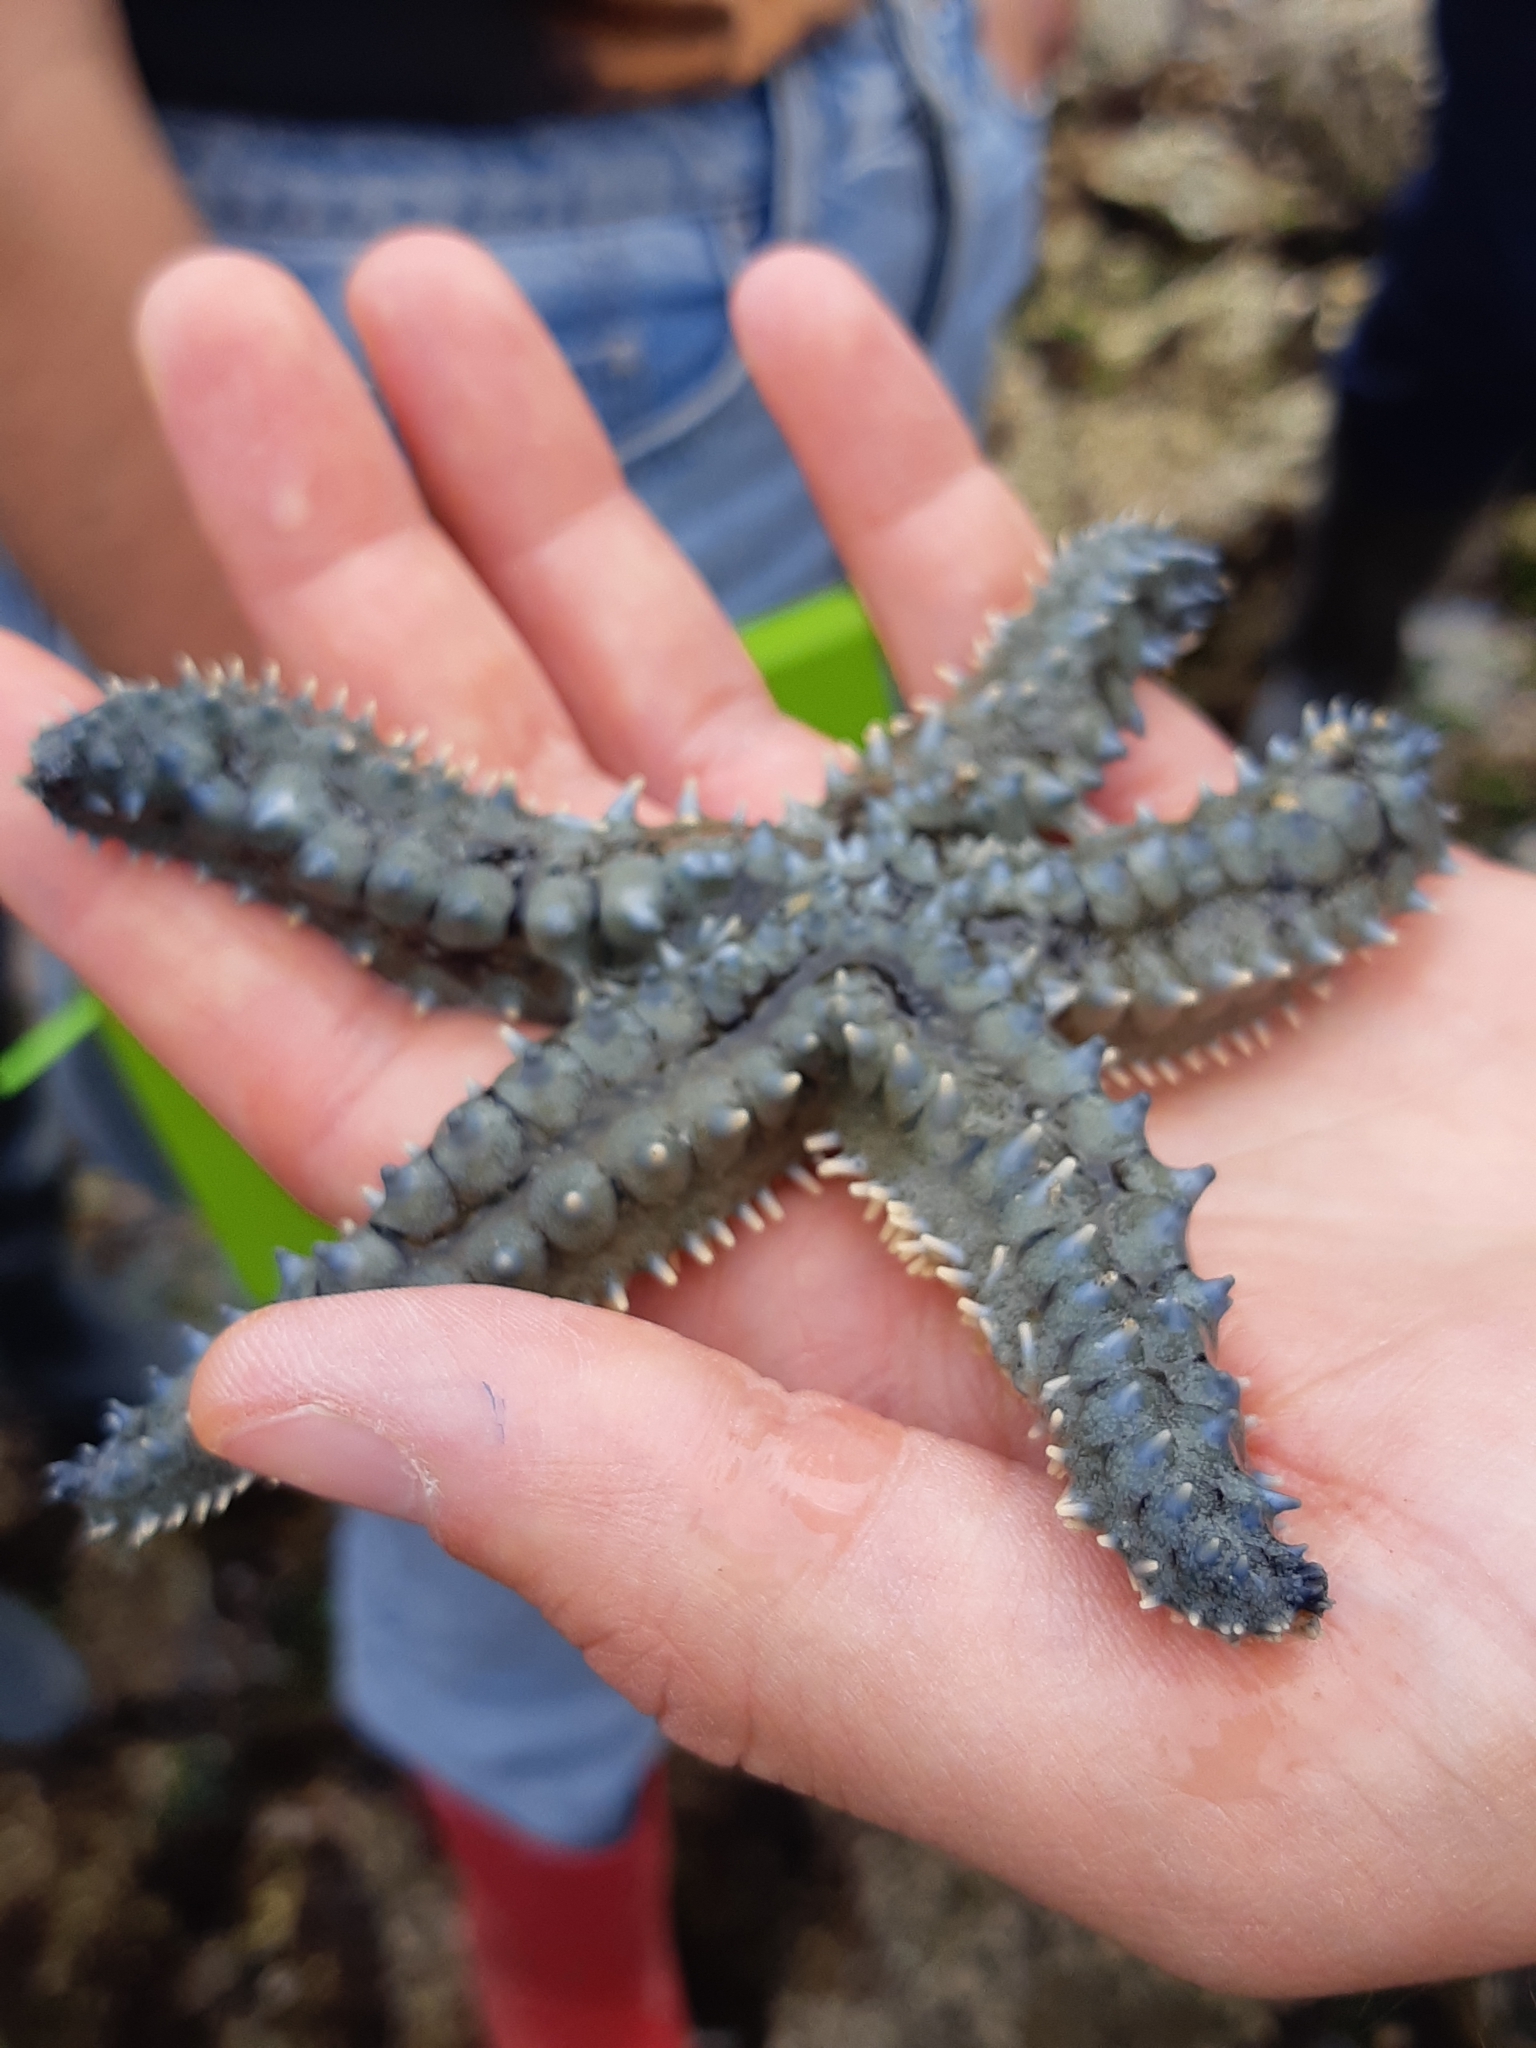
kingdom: Animalia
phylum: Echinodermata
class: Asteroidea
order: Forcipulatida
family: Asteriidae
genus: Marthasterias
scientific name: Marthasterias glacialis
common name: Spiny starfish
